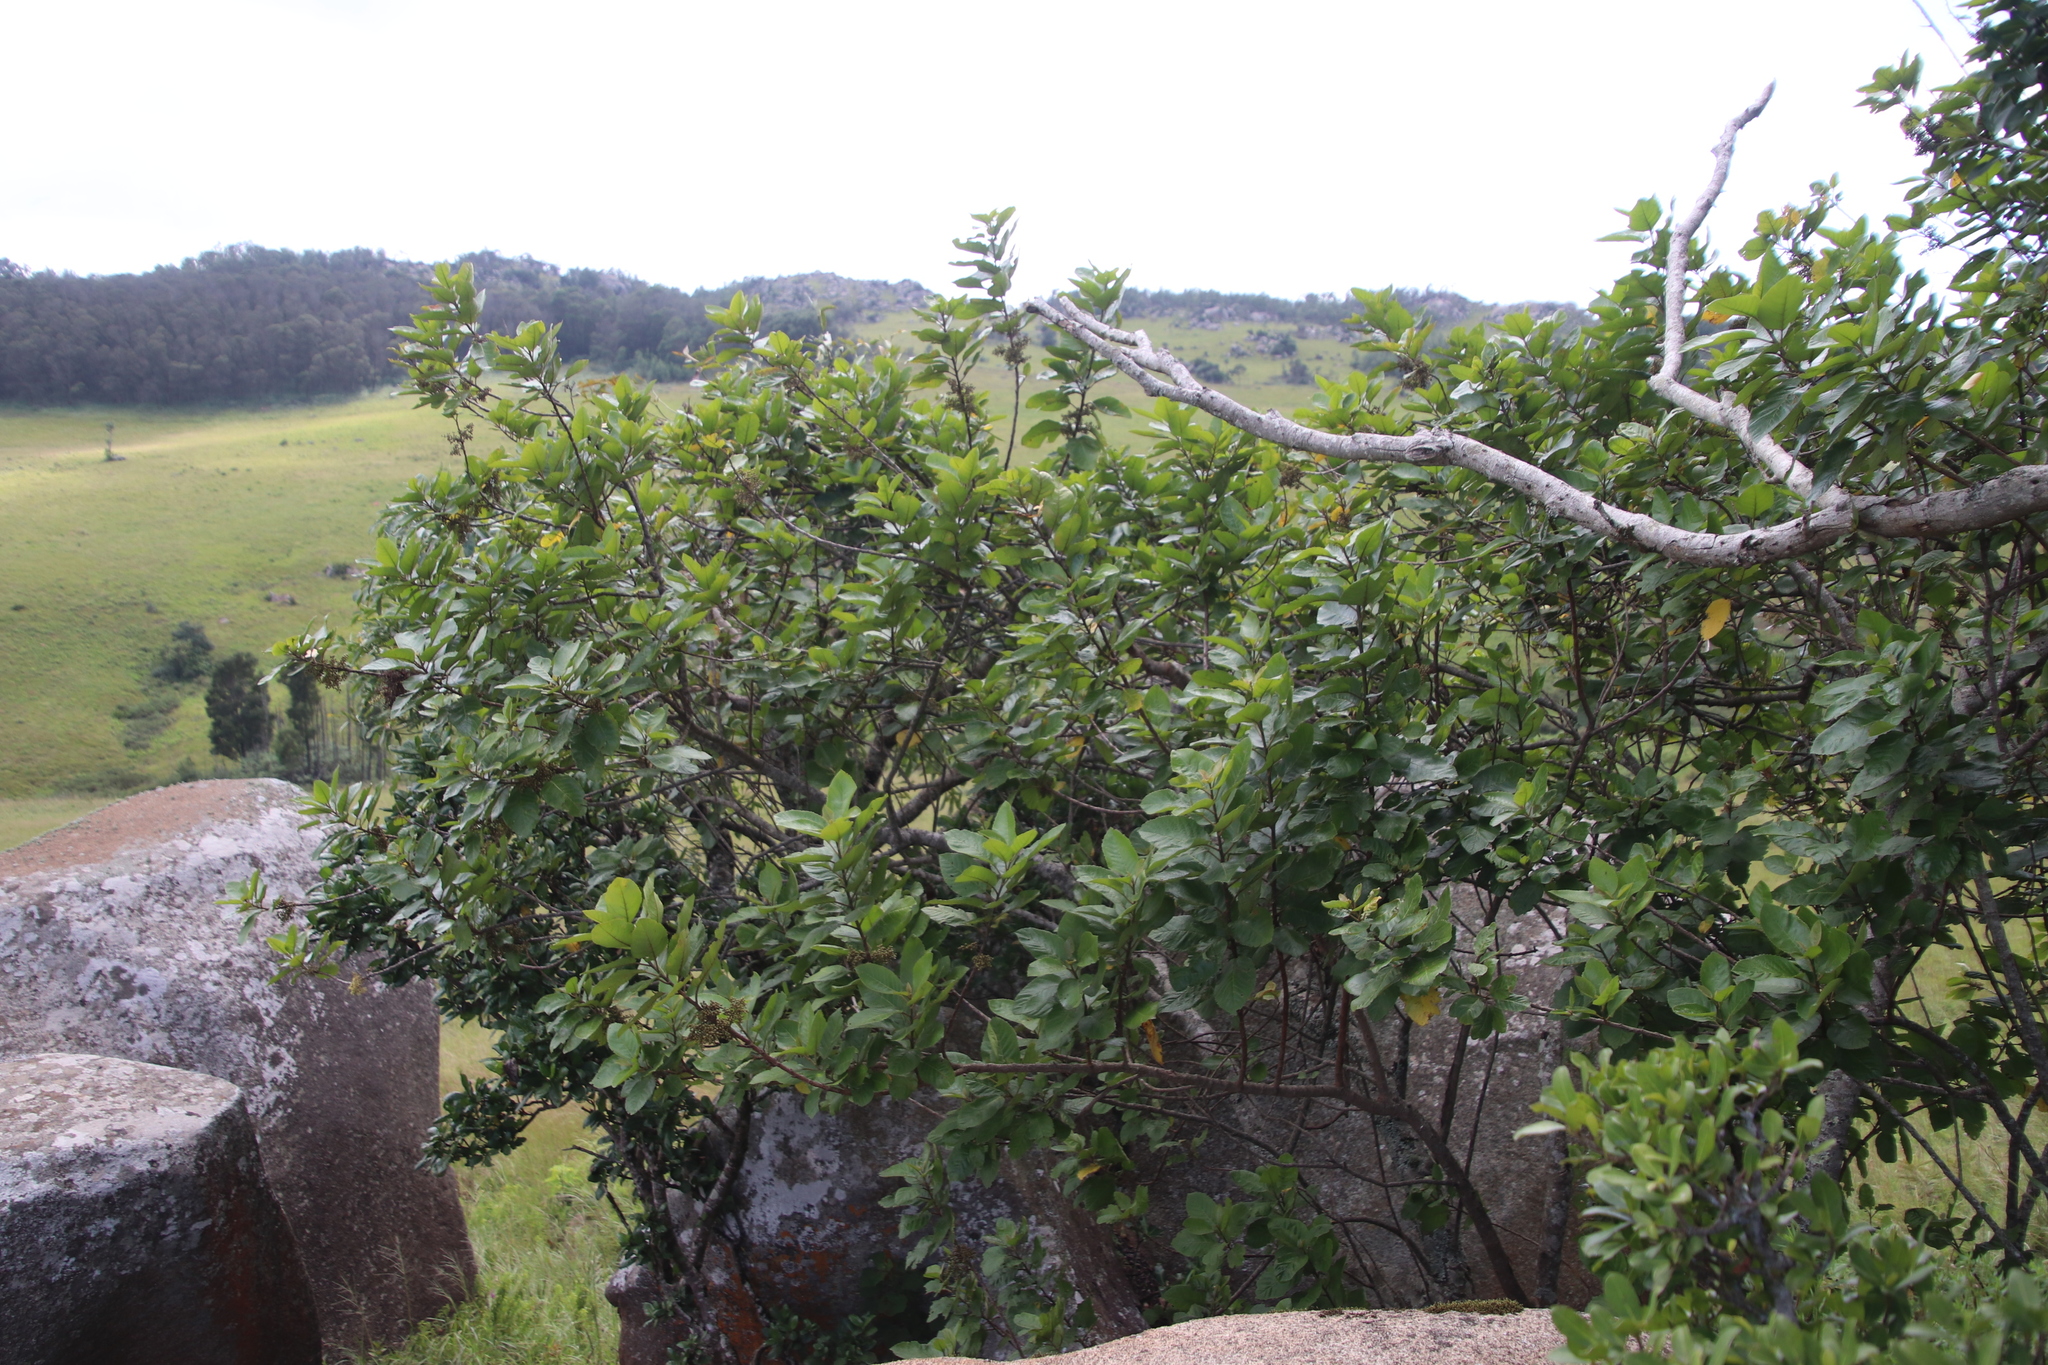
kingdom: Plantae
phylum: Tracheophyta
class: Magnoliopsida
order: Ericales
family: Primulaceae
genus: Maesa
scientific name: Maesa lanceolata
